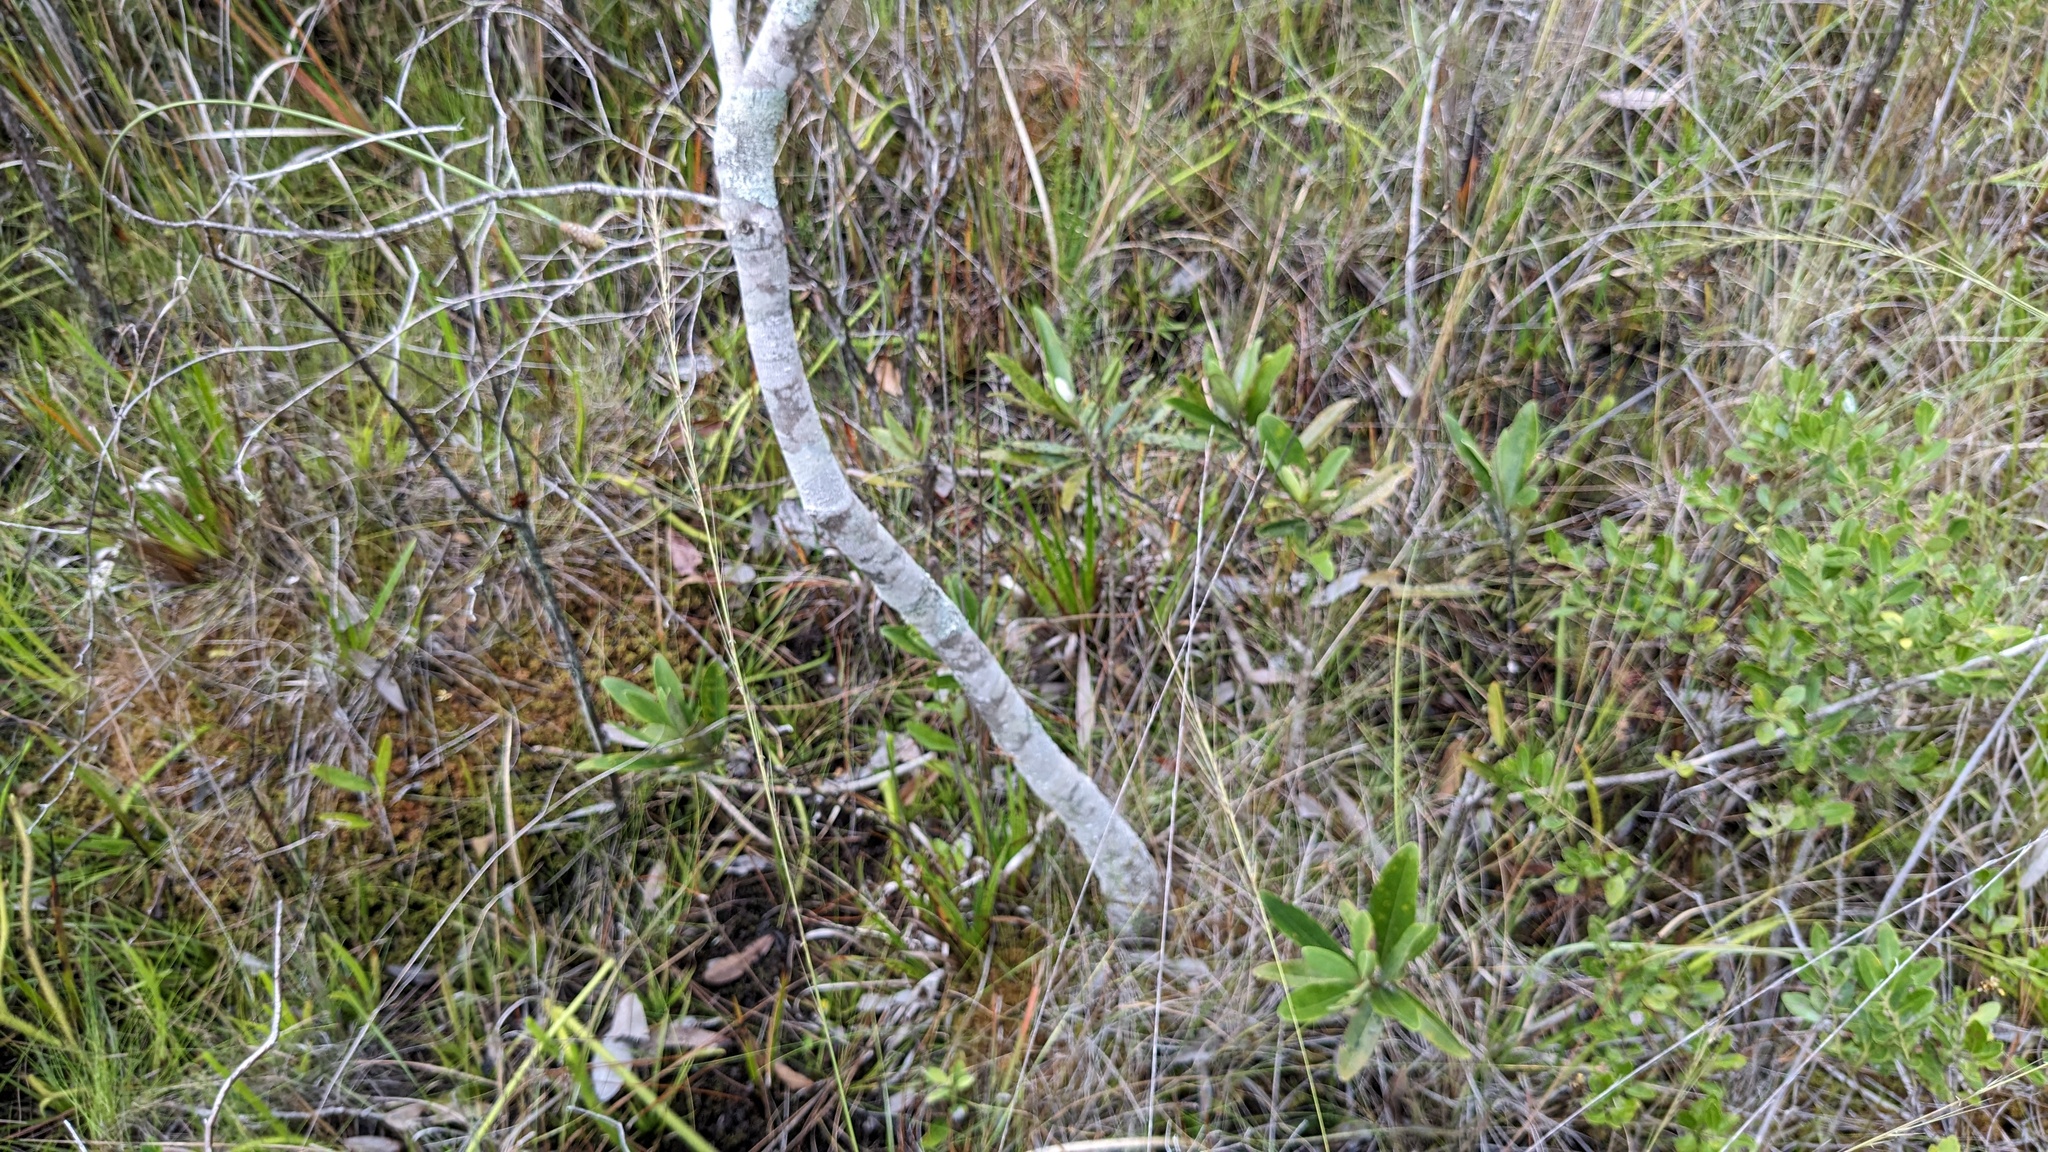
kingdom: Plantae
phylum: Tracheophyta
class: Magnoliopsida
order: Magnoliales
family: Magnoliaceae
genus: Magnolia
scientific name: Magnolia virginiana
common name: Swamp bay
